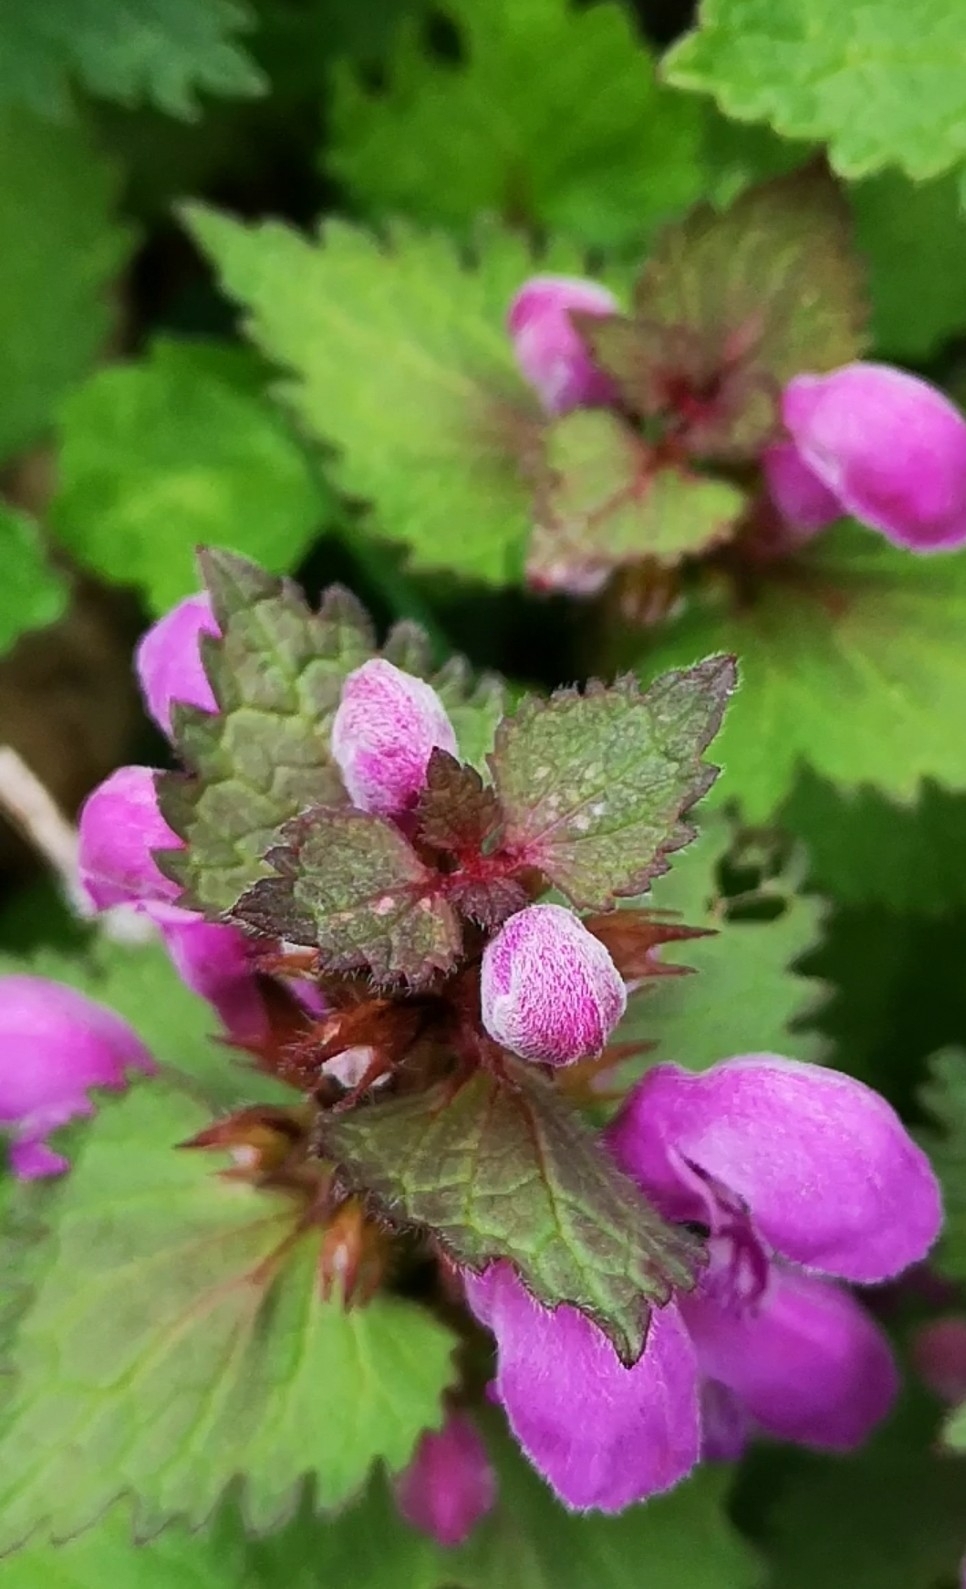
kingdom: Plantae
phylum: Tracheophyta
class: Magnoliopsida
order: Lamiales
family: Lamiaceae
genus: Lamium
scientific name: Lamium maculatum
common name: Spotted dead-nettle
